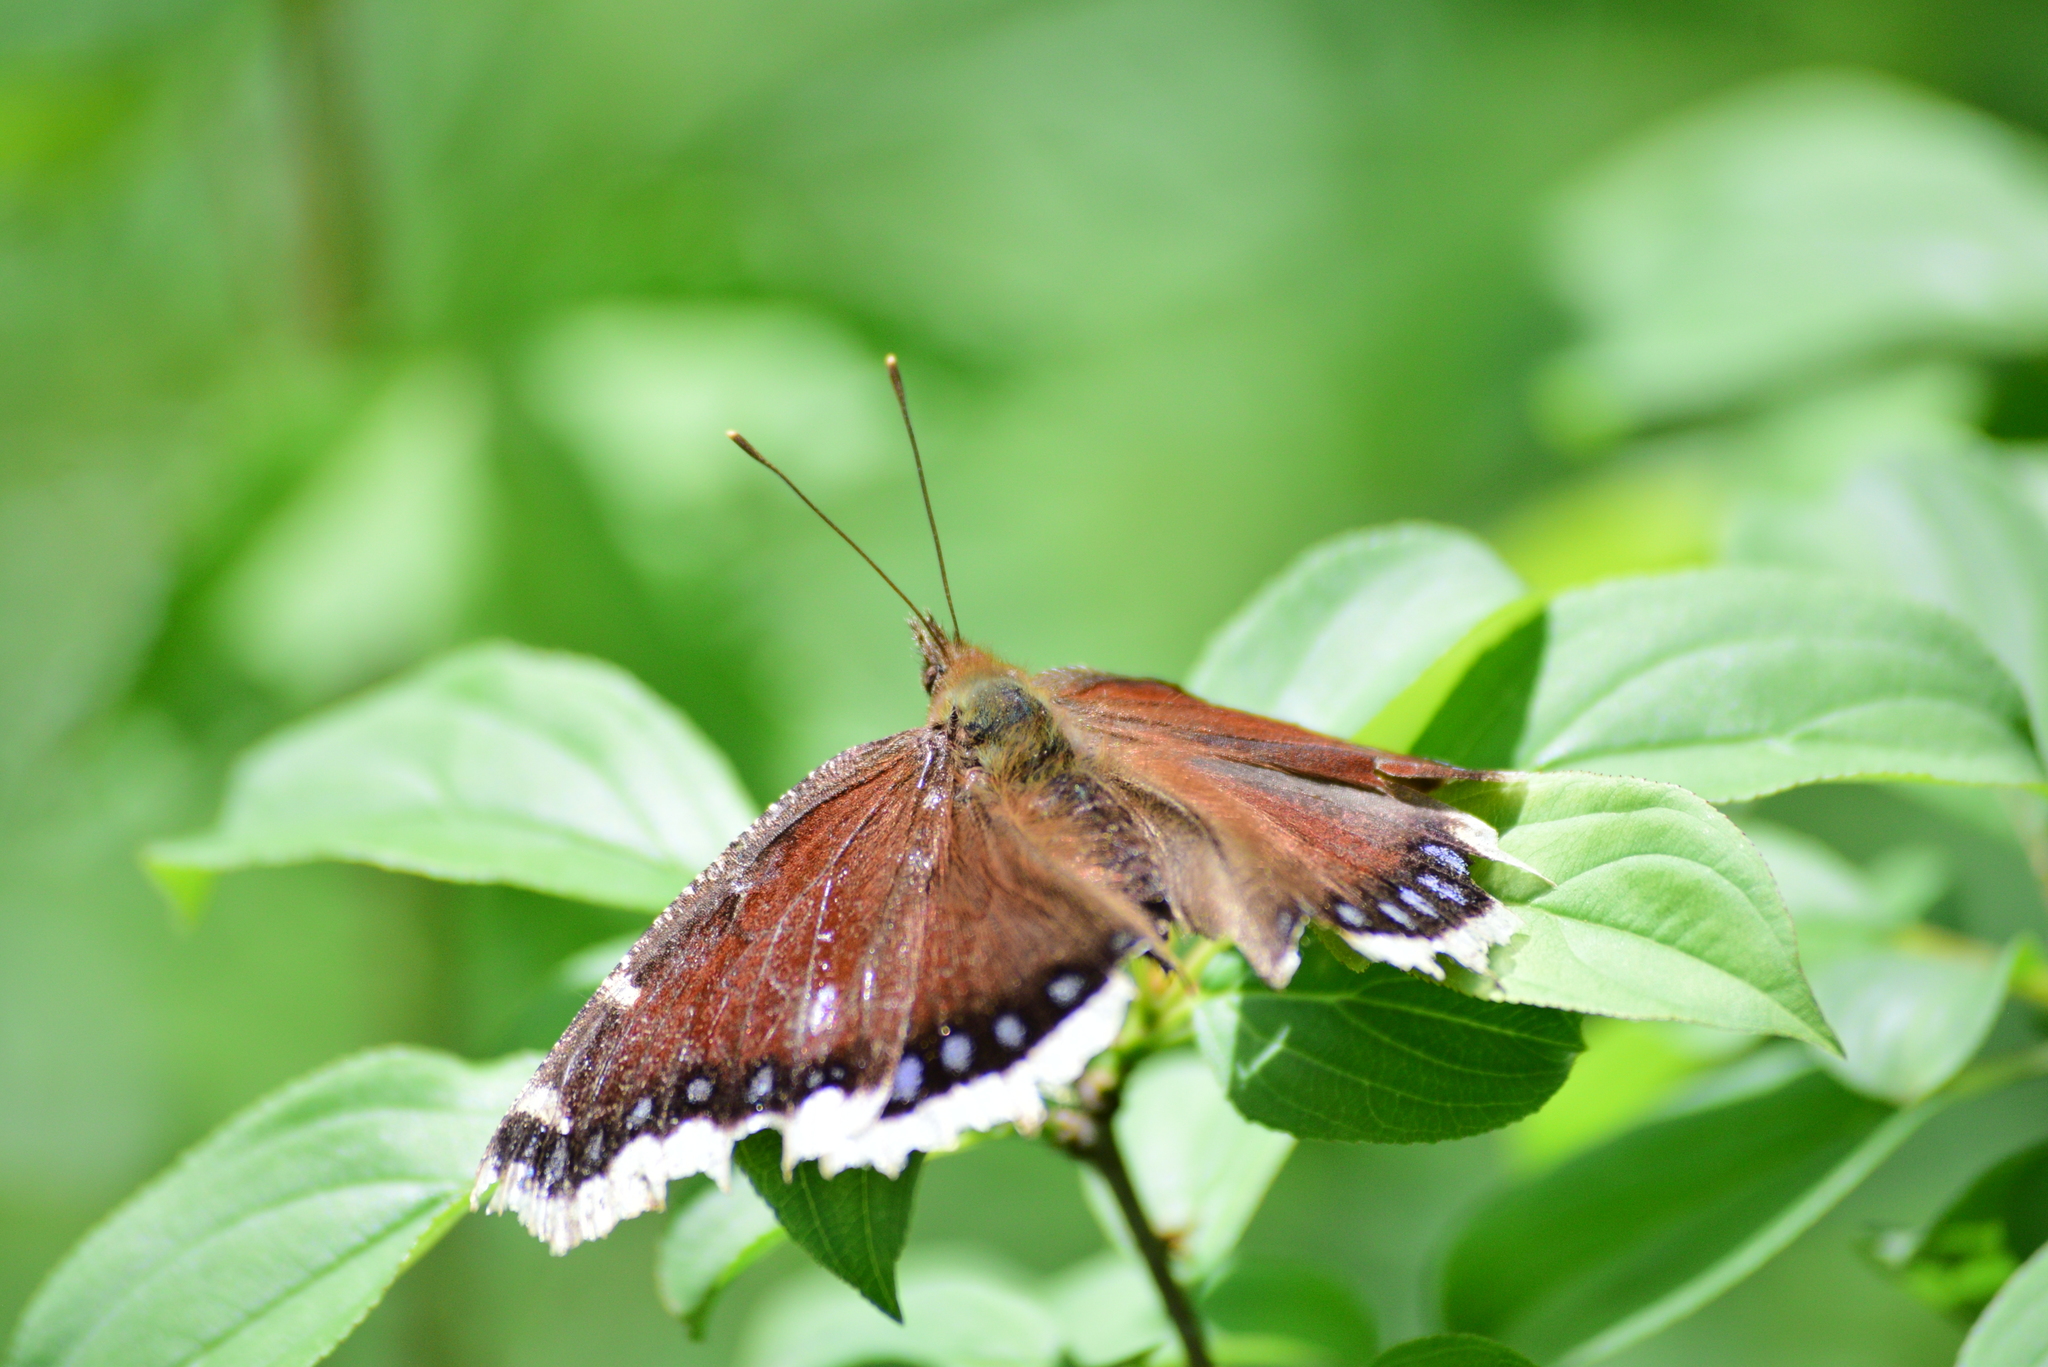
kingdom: Animalia
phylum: Arthropoda
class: Insecta
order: Lepidoptera
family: Nymphalidae
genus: Nymphalis
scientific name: Nymphalis antiopa
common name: Camberwell beauty
